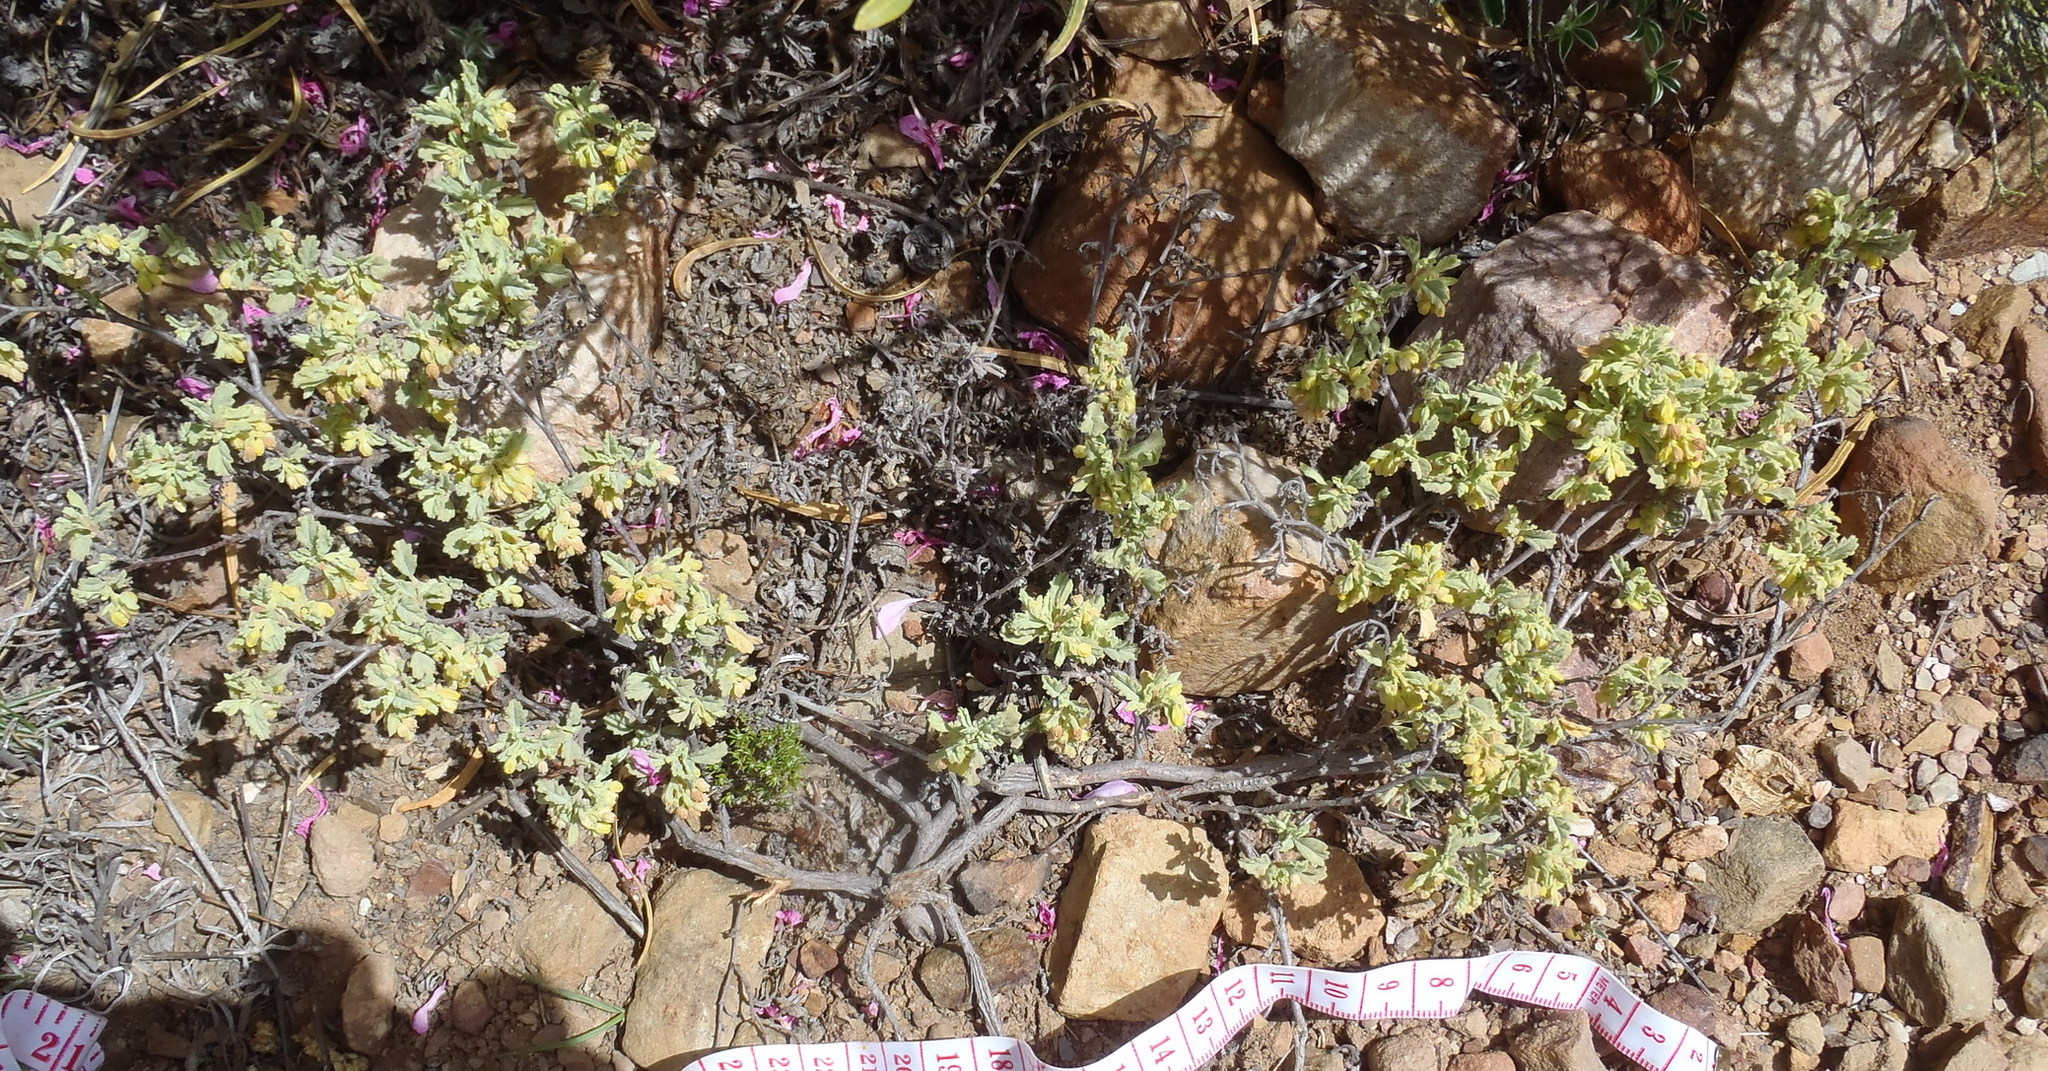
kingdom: Plantae
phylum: Tracheophyta
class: Magnoliopsida
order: Malvales
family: Malvaceae
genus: Hermannia
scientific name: Hermannia minutiflora
